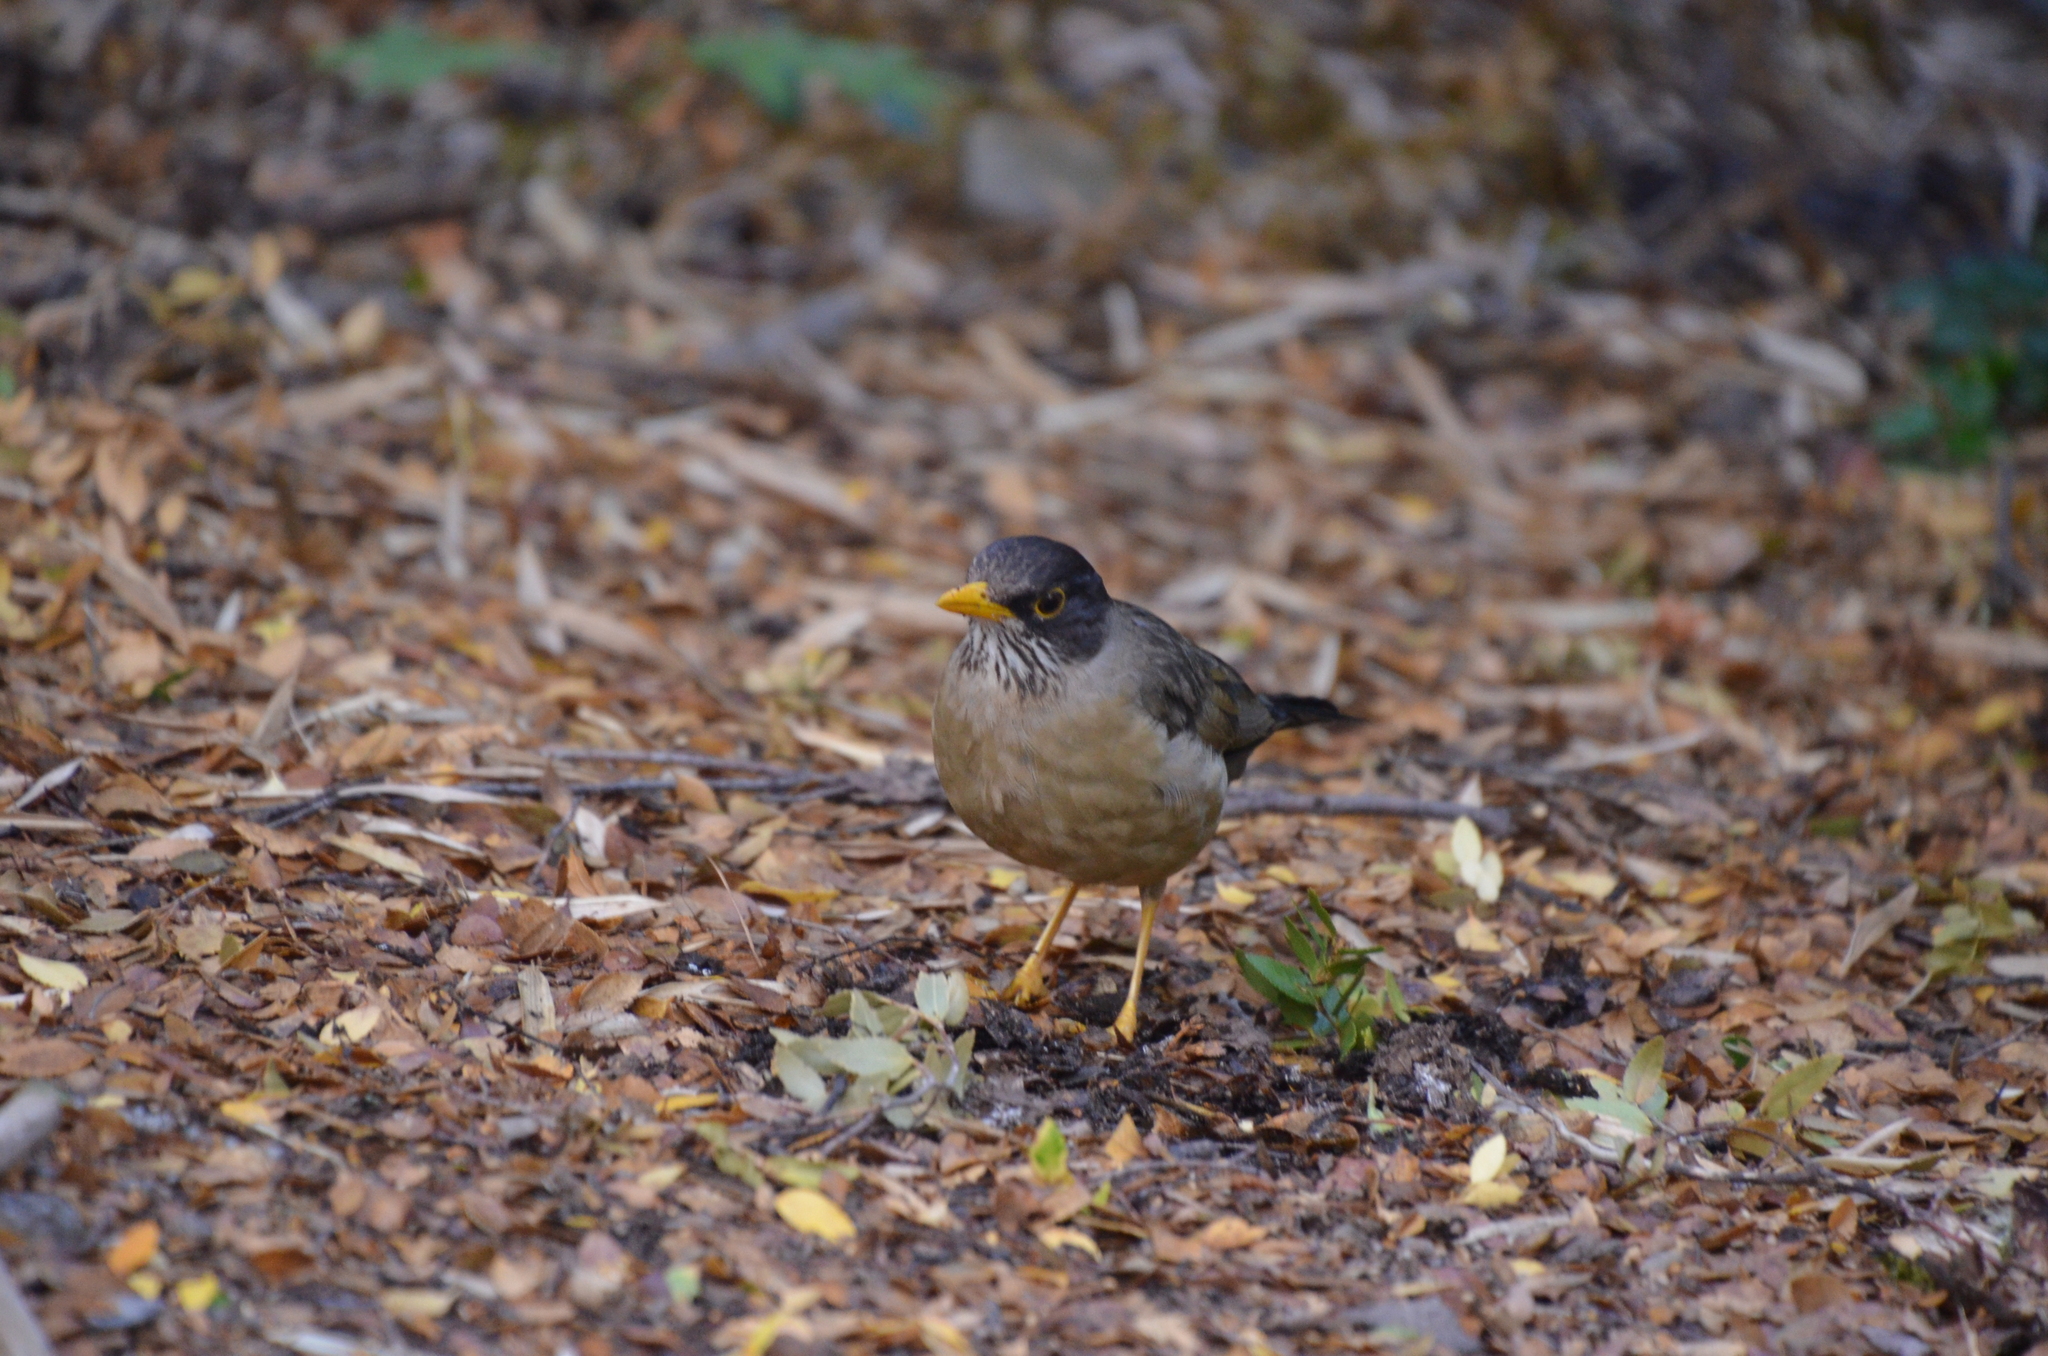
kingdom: Animalia
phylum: Chordata
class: Aves
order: Passeriformes
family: Turdidae
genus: Turdus
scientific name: Turdus falcklandii
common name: Austral thrush
